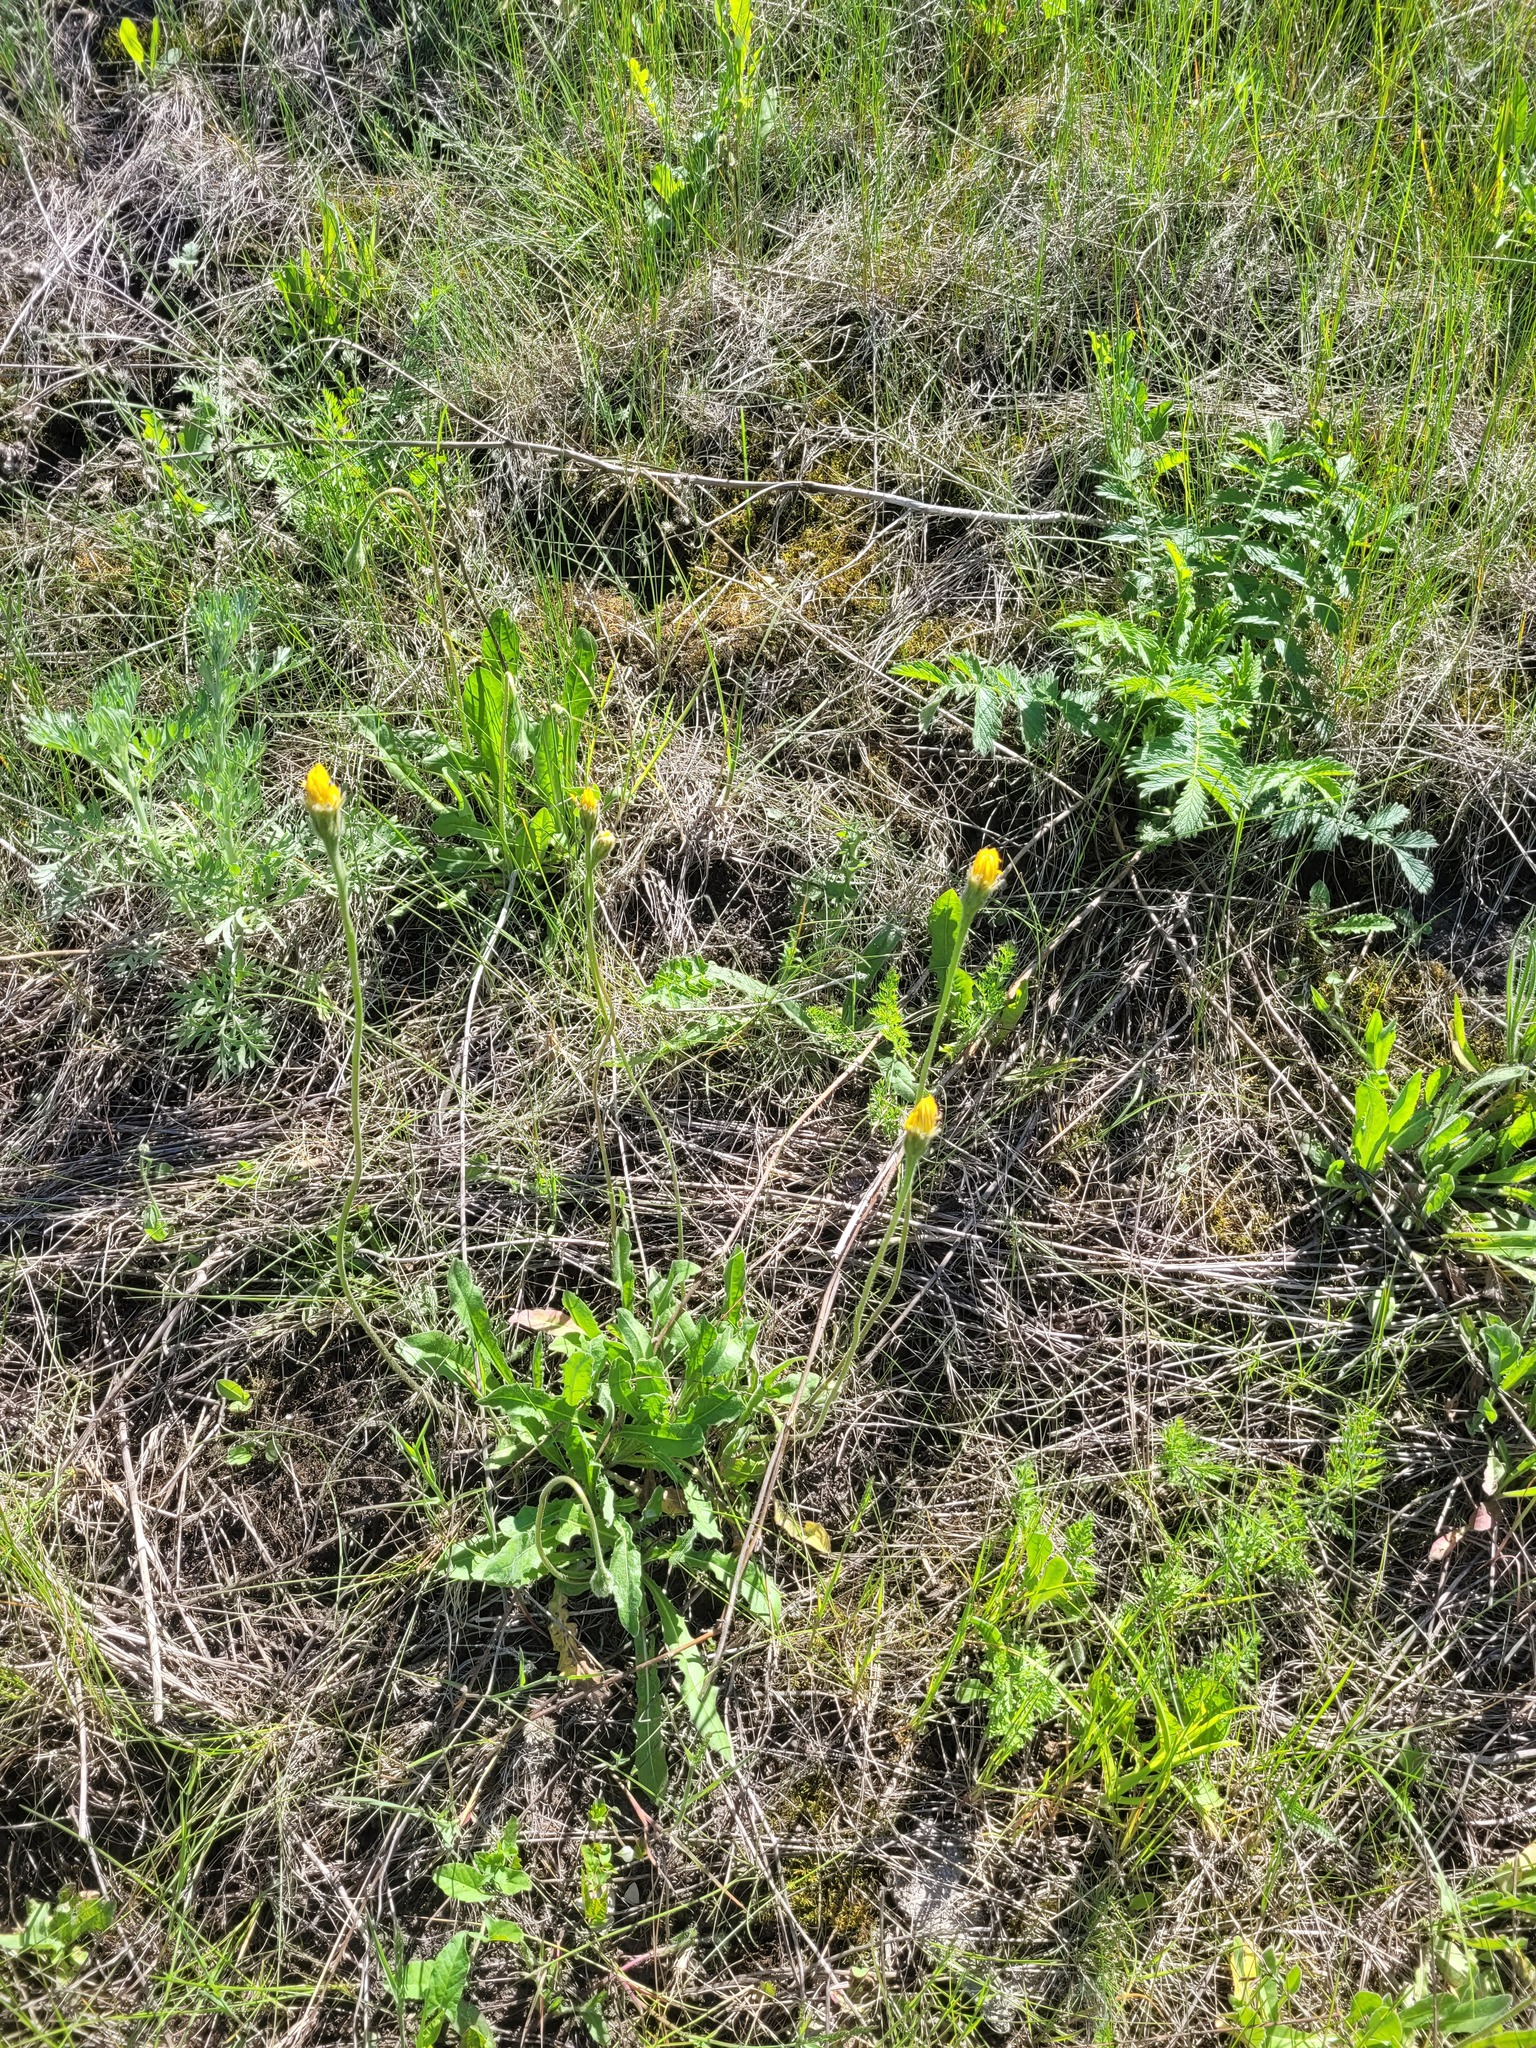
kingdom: Plantae
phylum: Tracheophyta
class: Magnoliopsida
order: Asterales
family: Asteraceae
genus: Leontodon
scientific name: Leontodon hispidus
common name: Rough hawkbit
